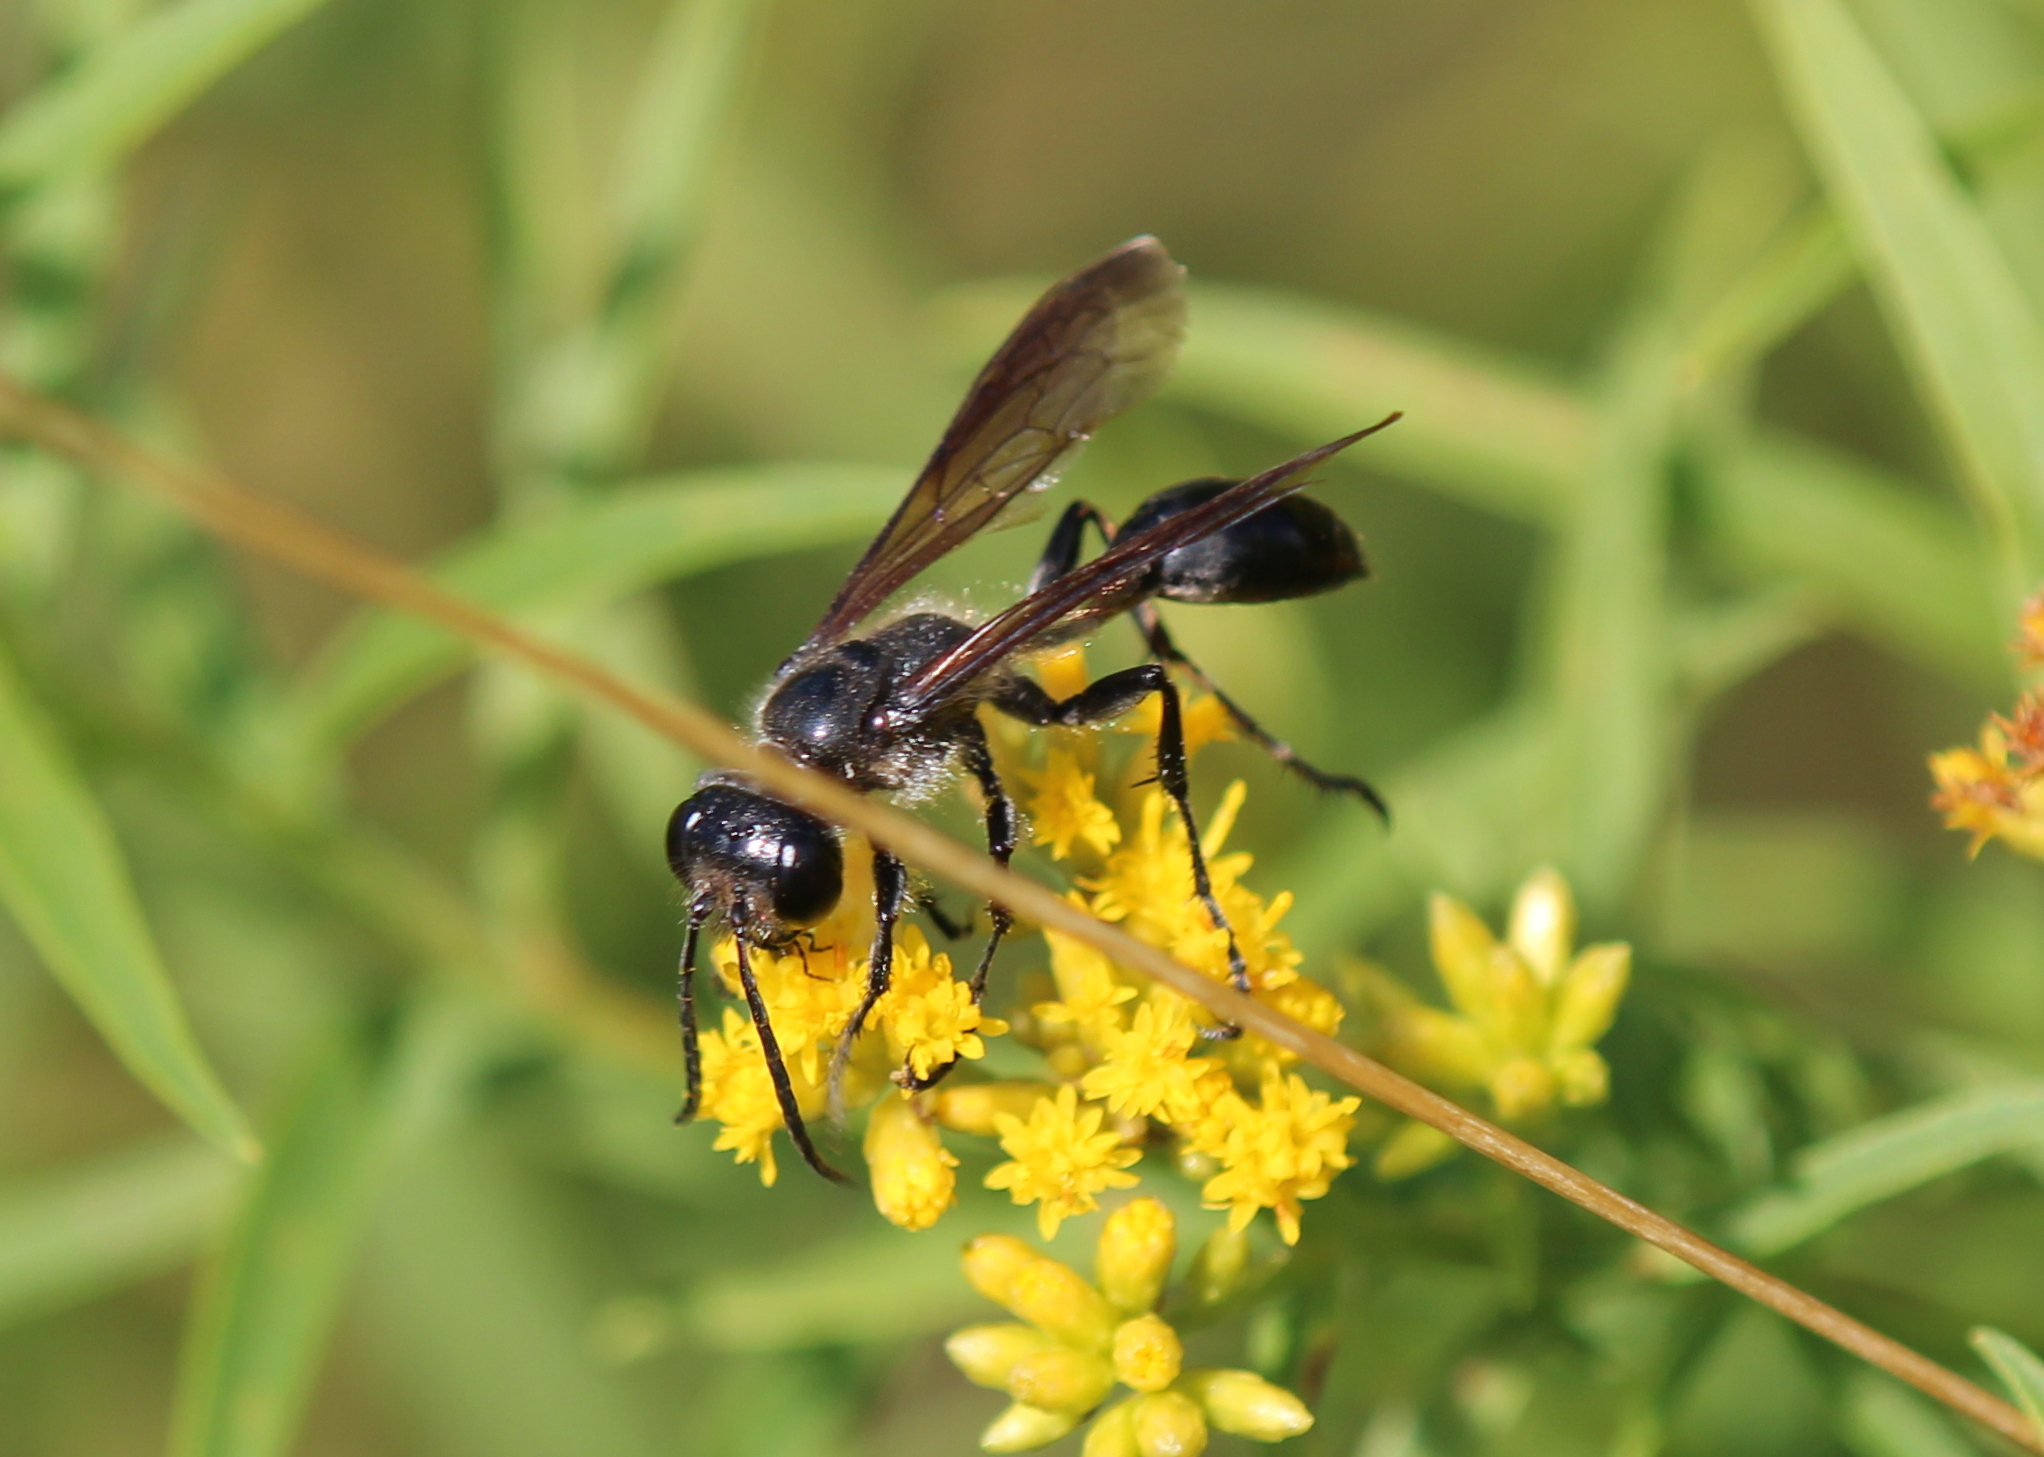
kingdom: Animalia
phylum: Arthropoda
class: Insecta
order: Hymenoptera
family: Sphecidae
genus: Isodontia
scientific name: Isodontia mexicana
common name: Mud dauber
